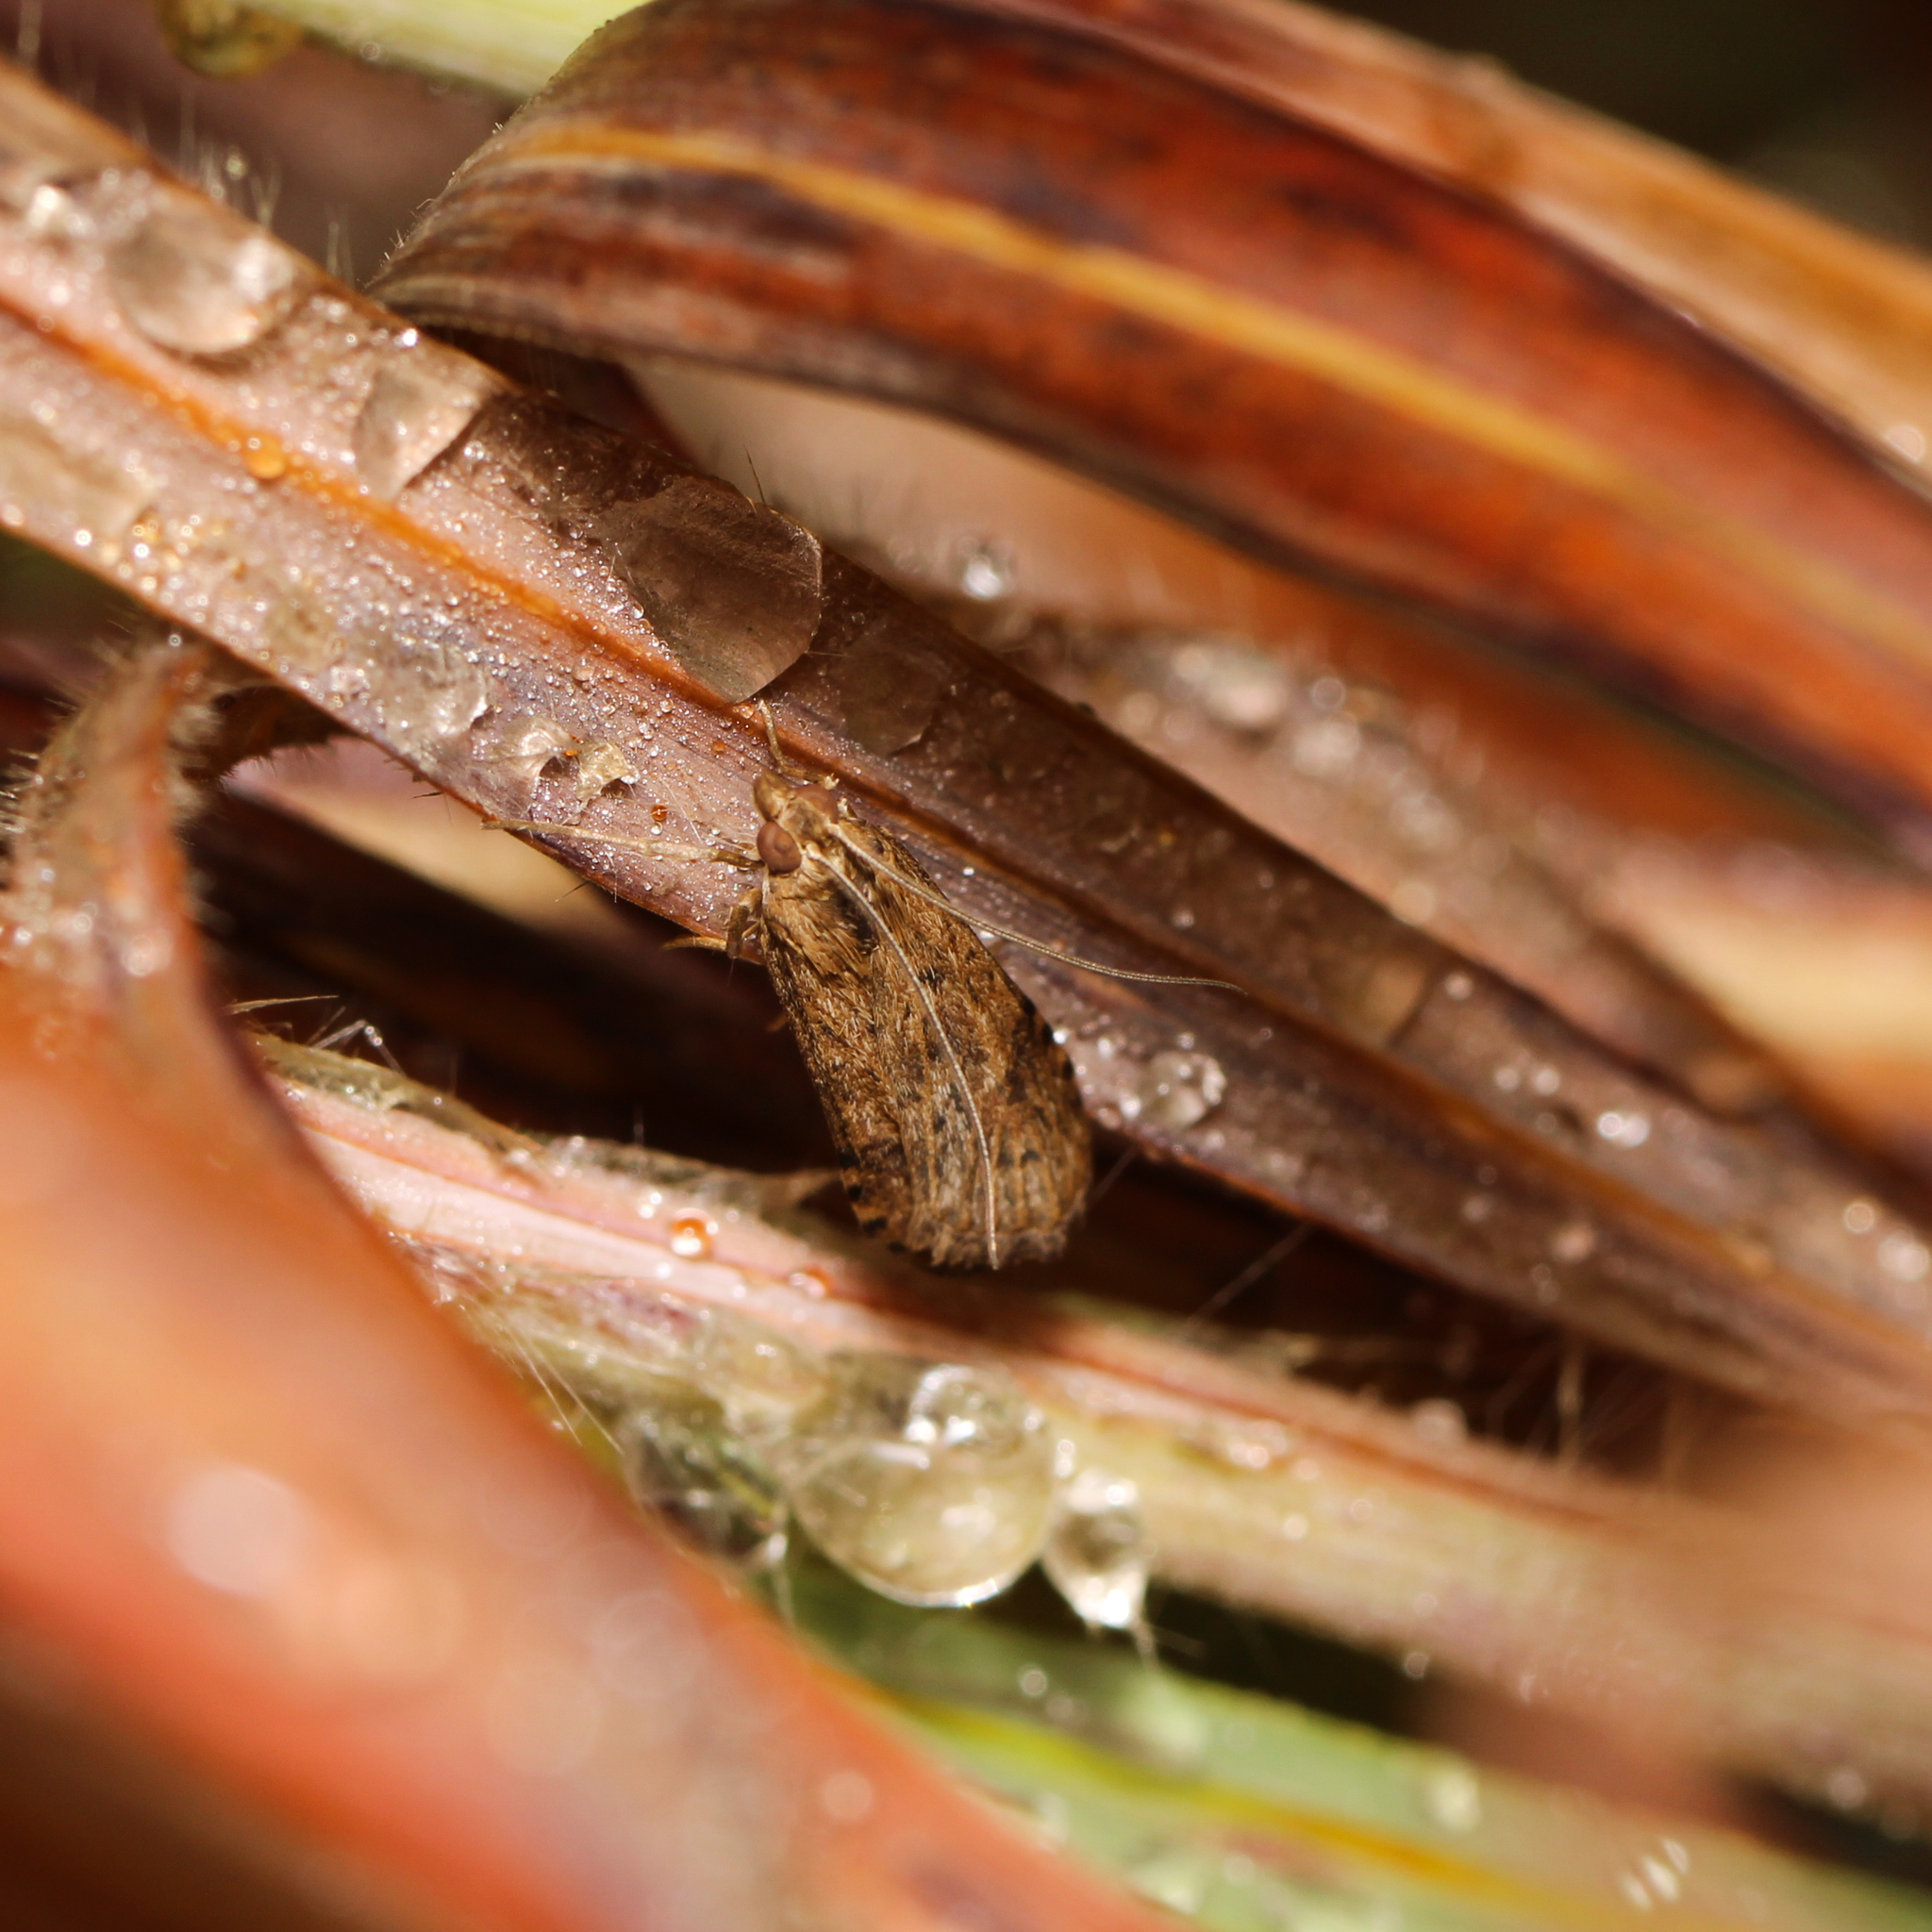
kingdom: Animalia
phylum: Arthropoda
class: Insecta
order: Lepidoptera
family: Crambidae
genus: Nomophila
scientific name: Nomophila nearctica
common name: American rush veneer
